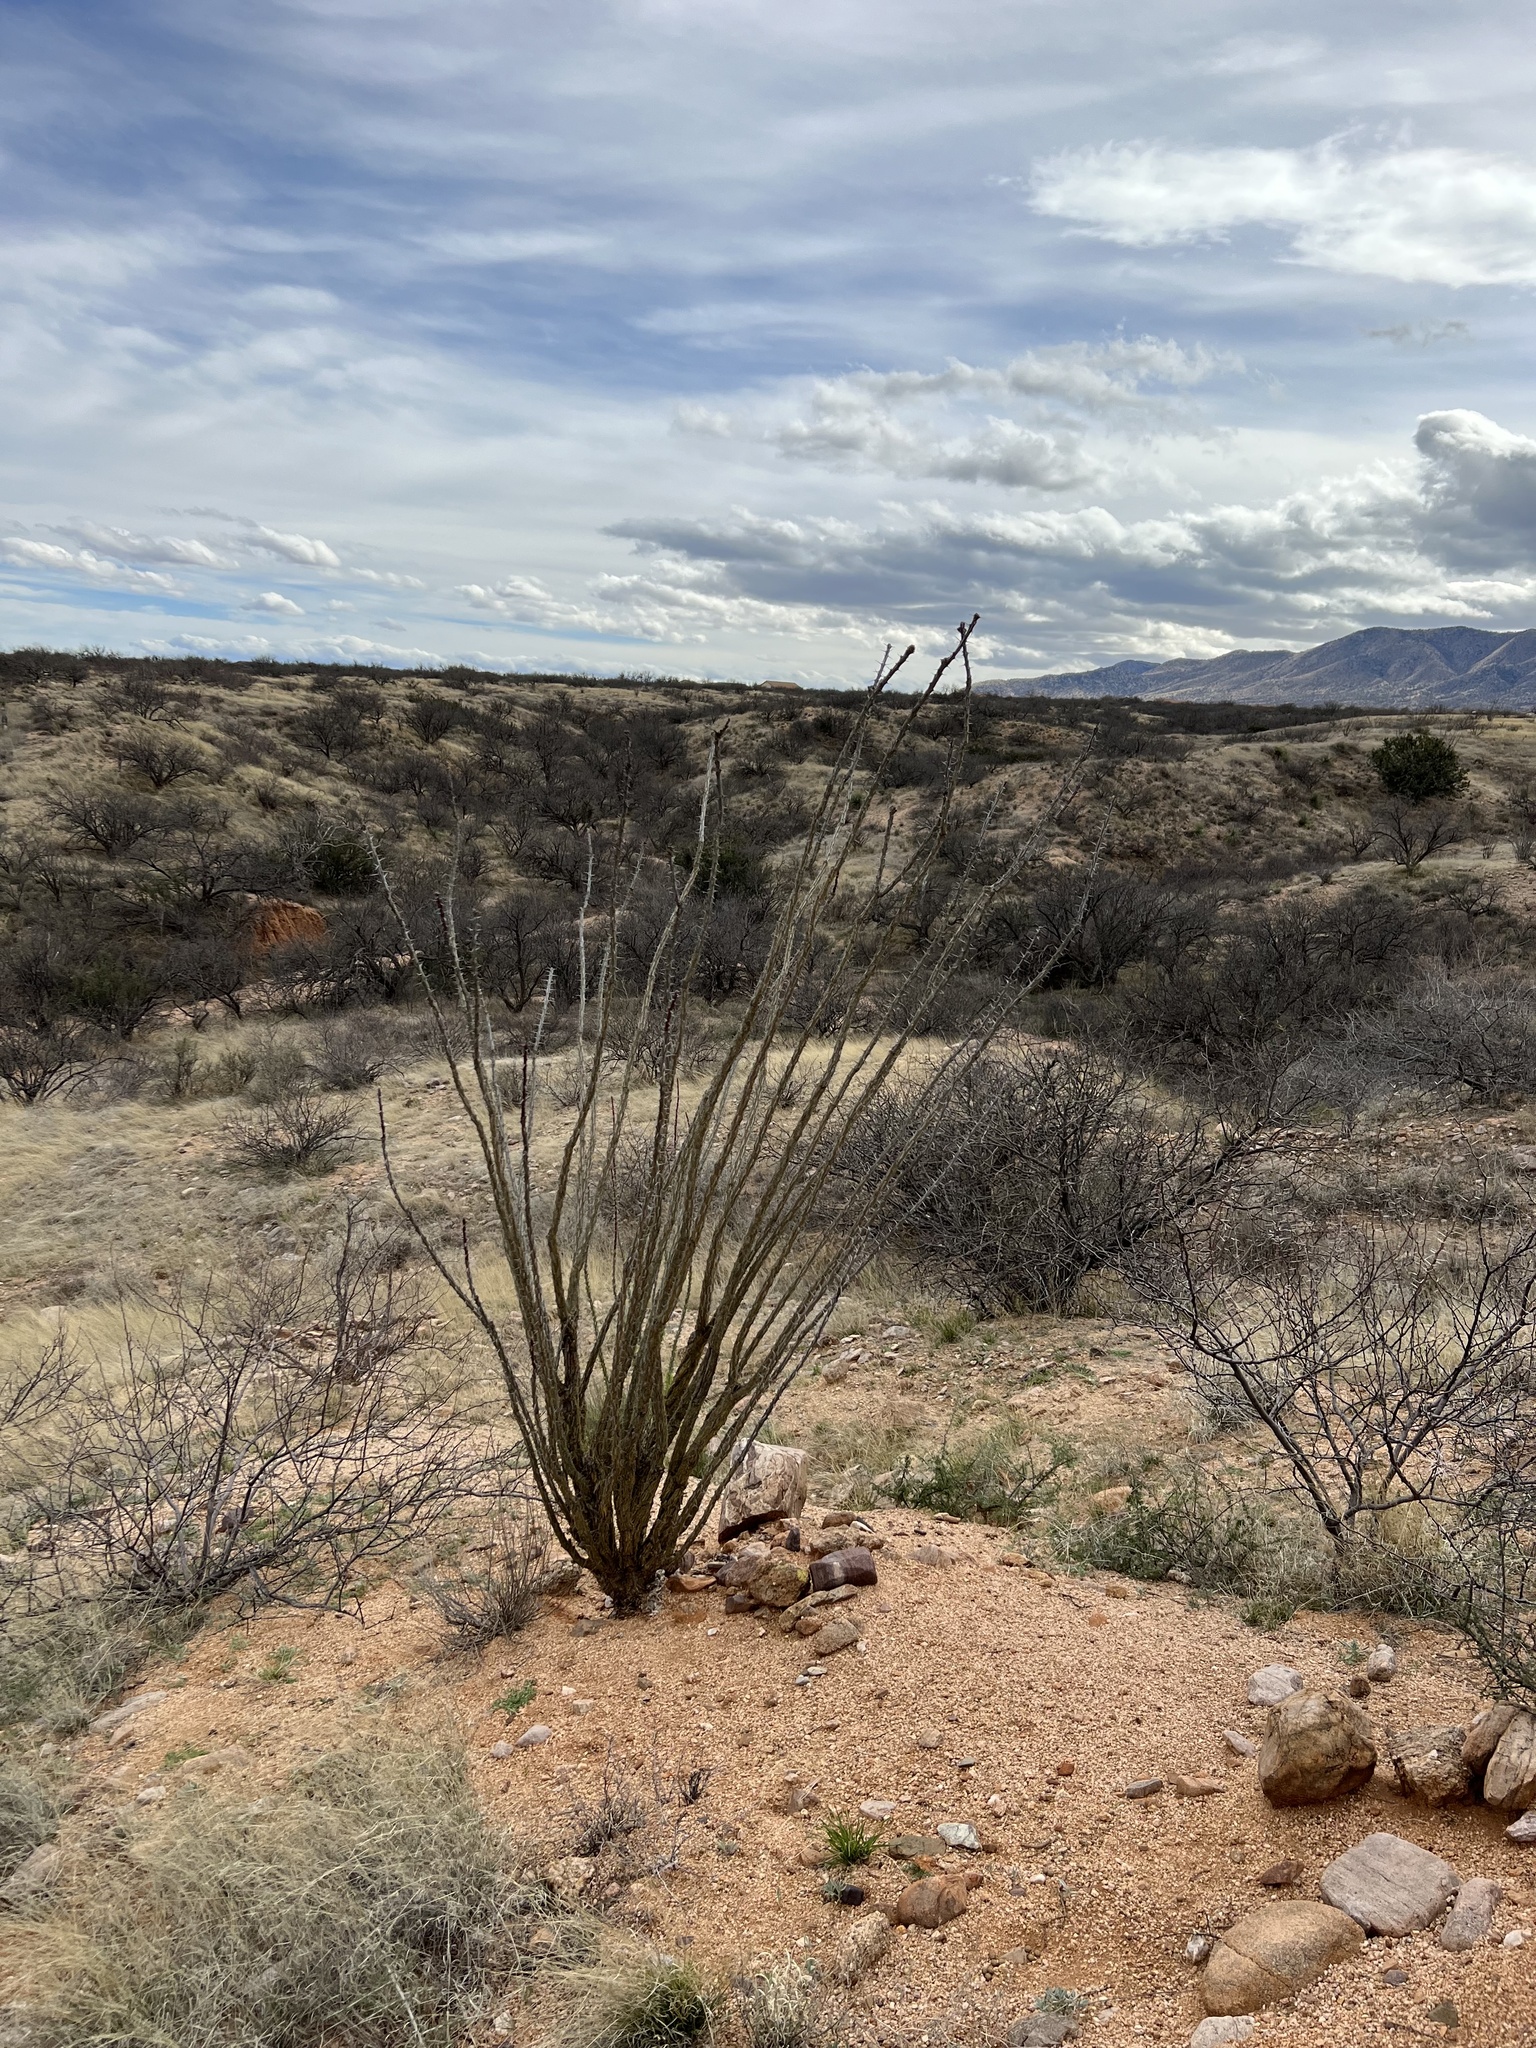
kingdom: Plantae
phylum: Tracheophyta
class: Magnoliopsida
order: Ericales
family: Fouquieriaceae
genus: Fouquieria
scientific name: Fouquieria splendens
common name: Vine-cactus
